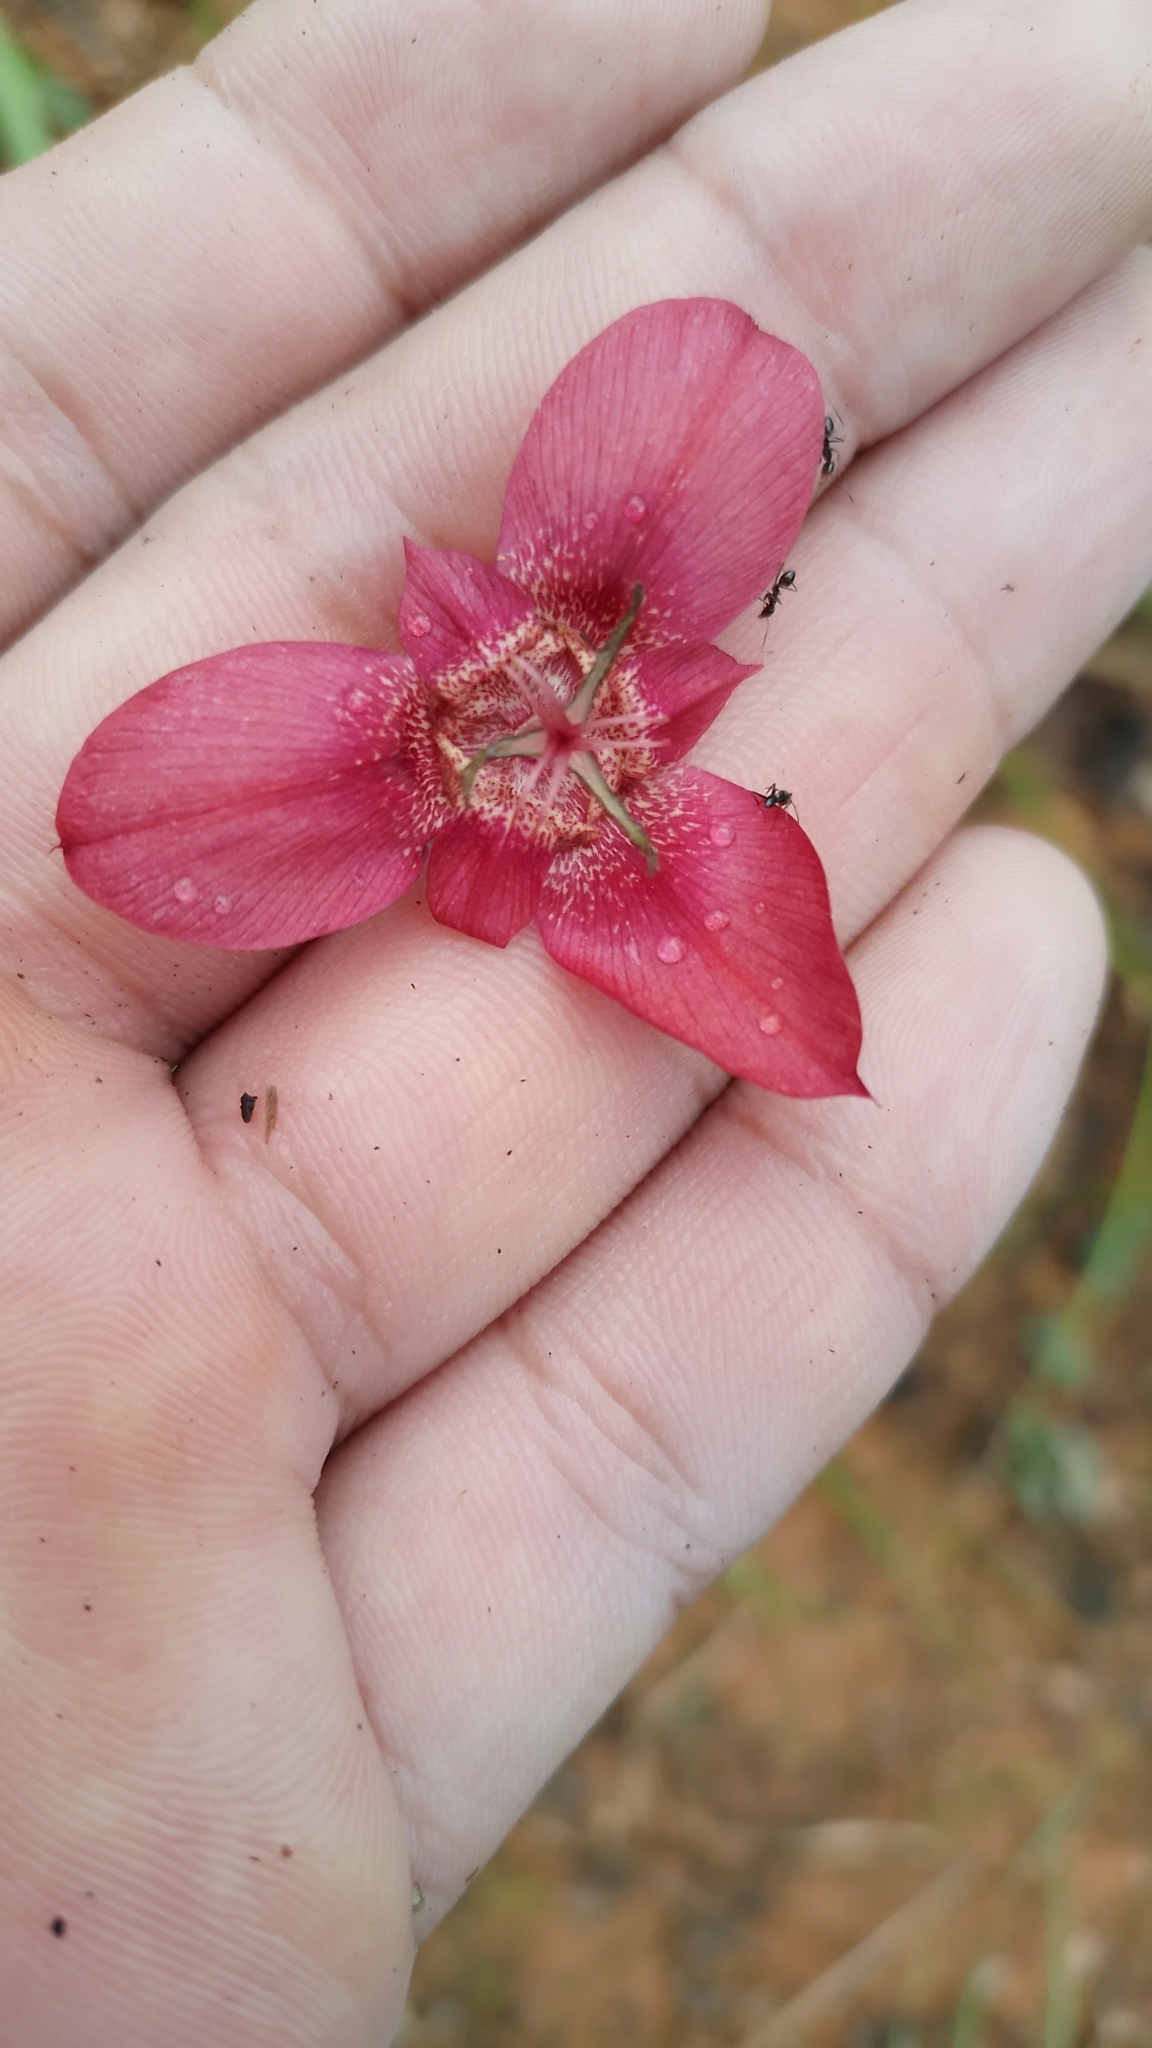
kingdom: Plantae
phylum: Tracheophyta
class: Liliopsida
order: Asparagales
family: Iridaceae
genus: Tigridia
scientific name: Tigridia chrysantha
